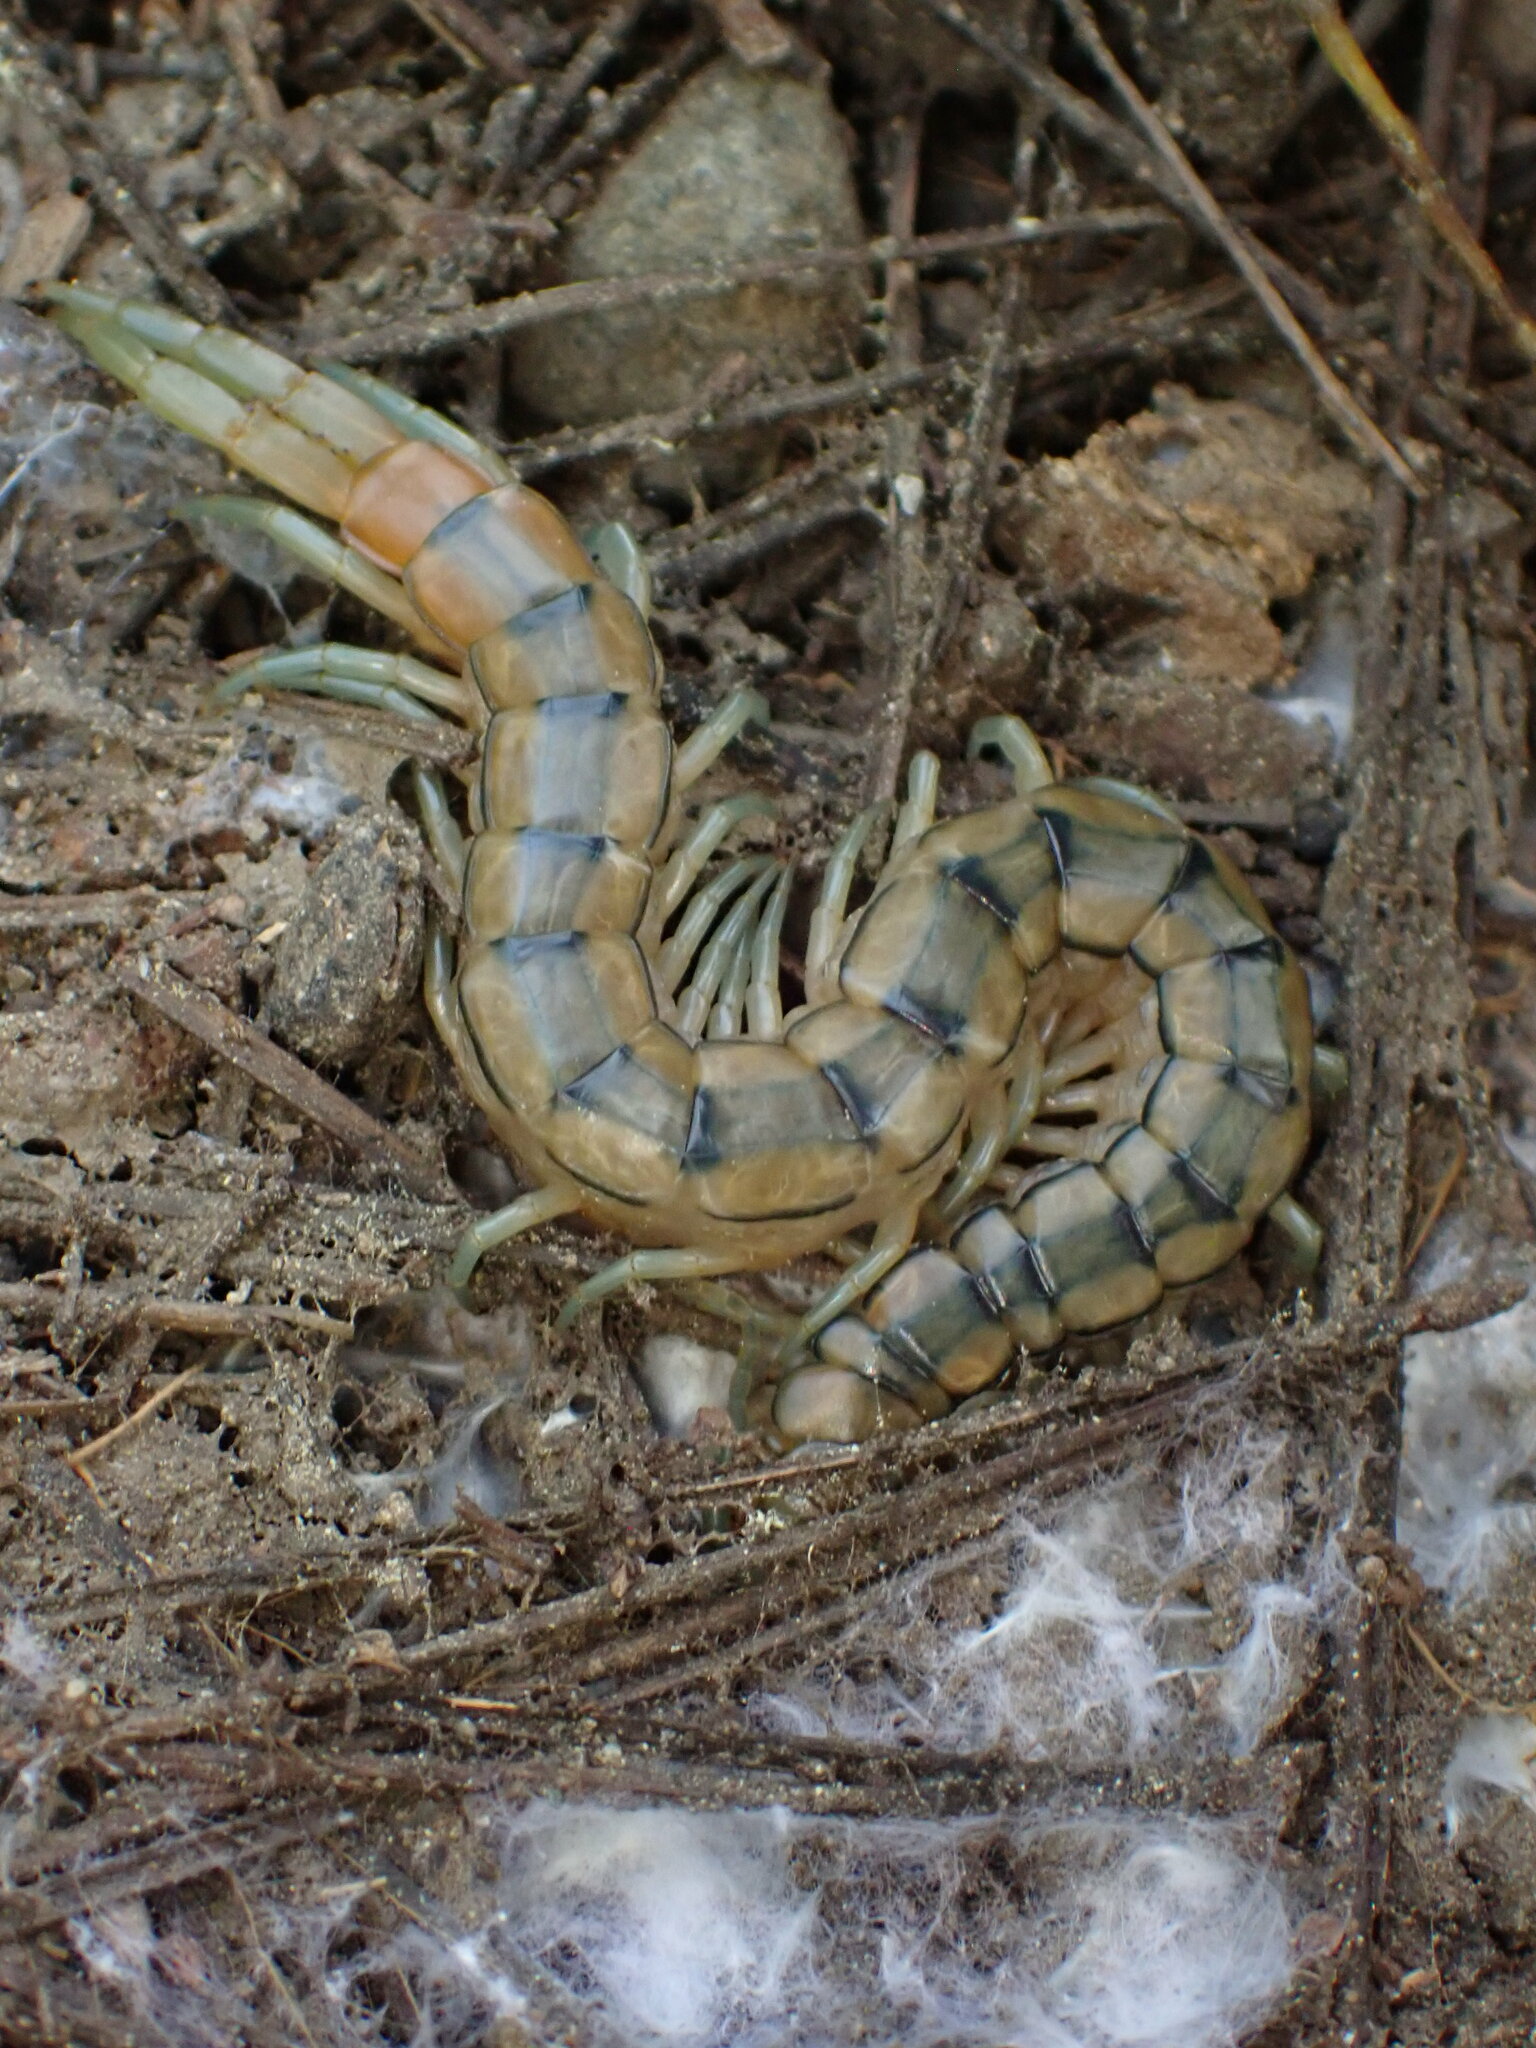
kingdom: Animalia
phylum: Arthropoda
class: Chilopoda
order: Scolopendromorpha
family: Scolopendridae
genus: Scolopendra
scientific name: Scolopendra cingulata
